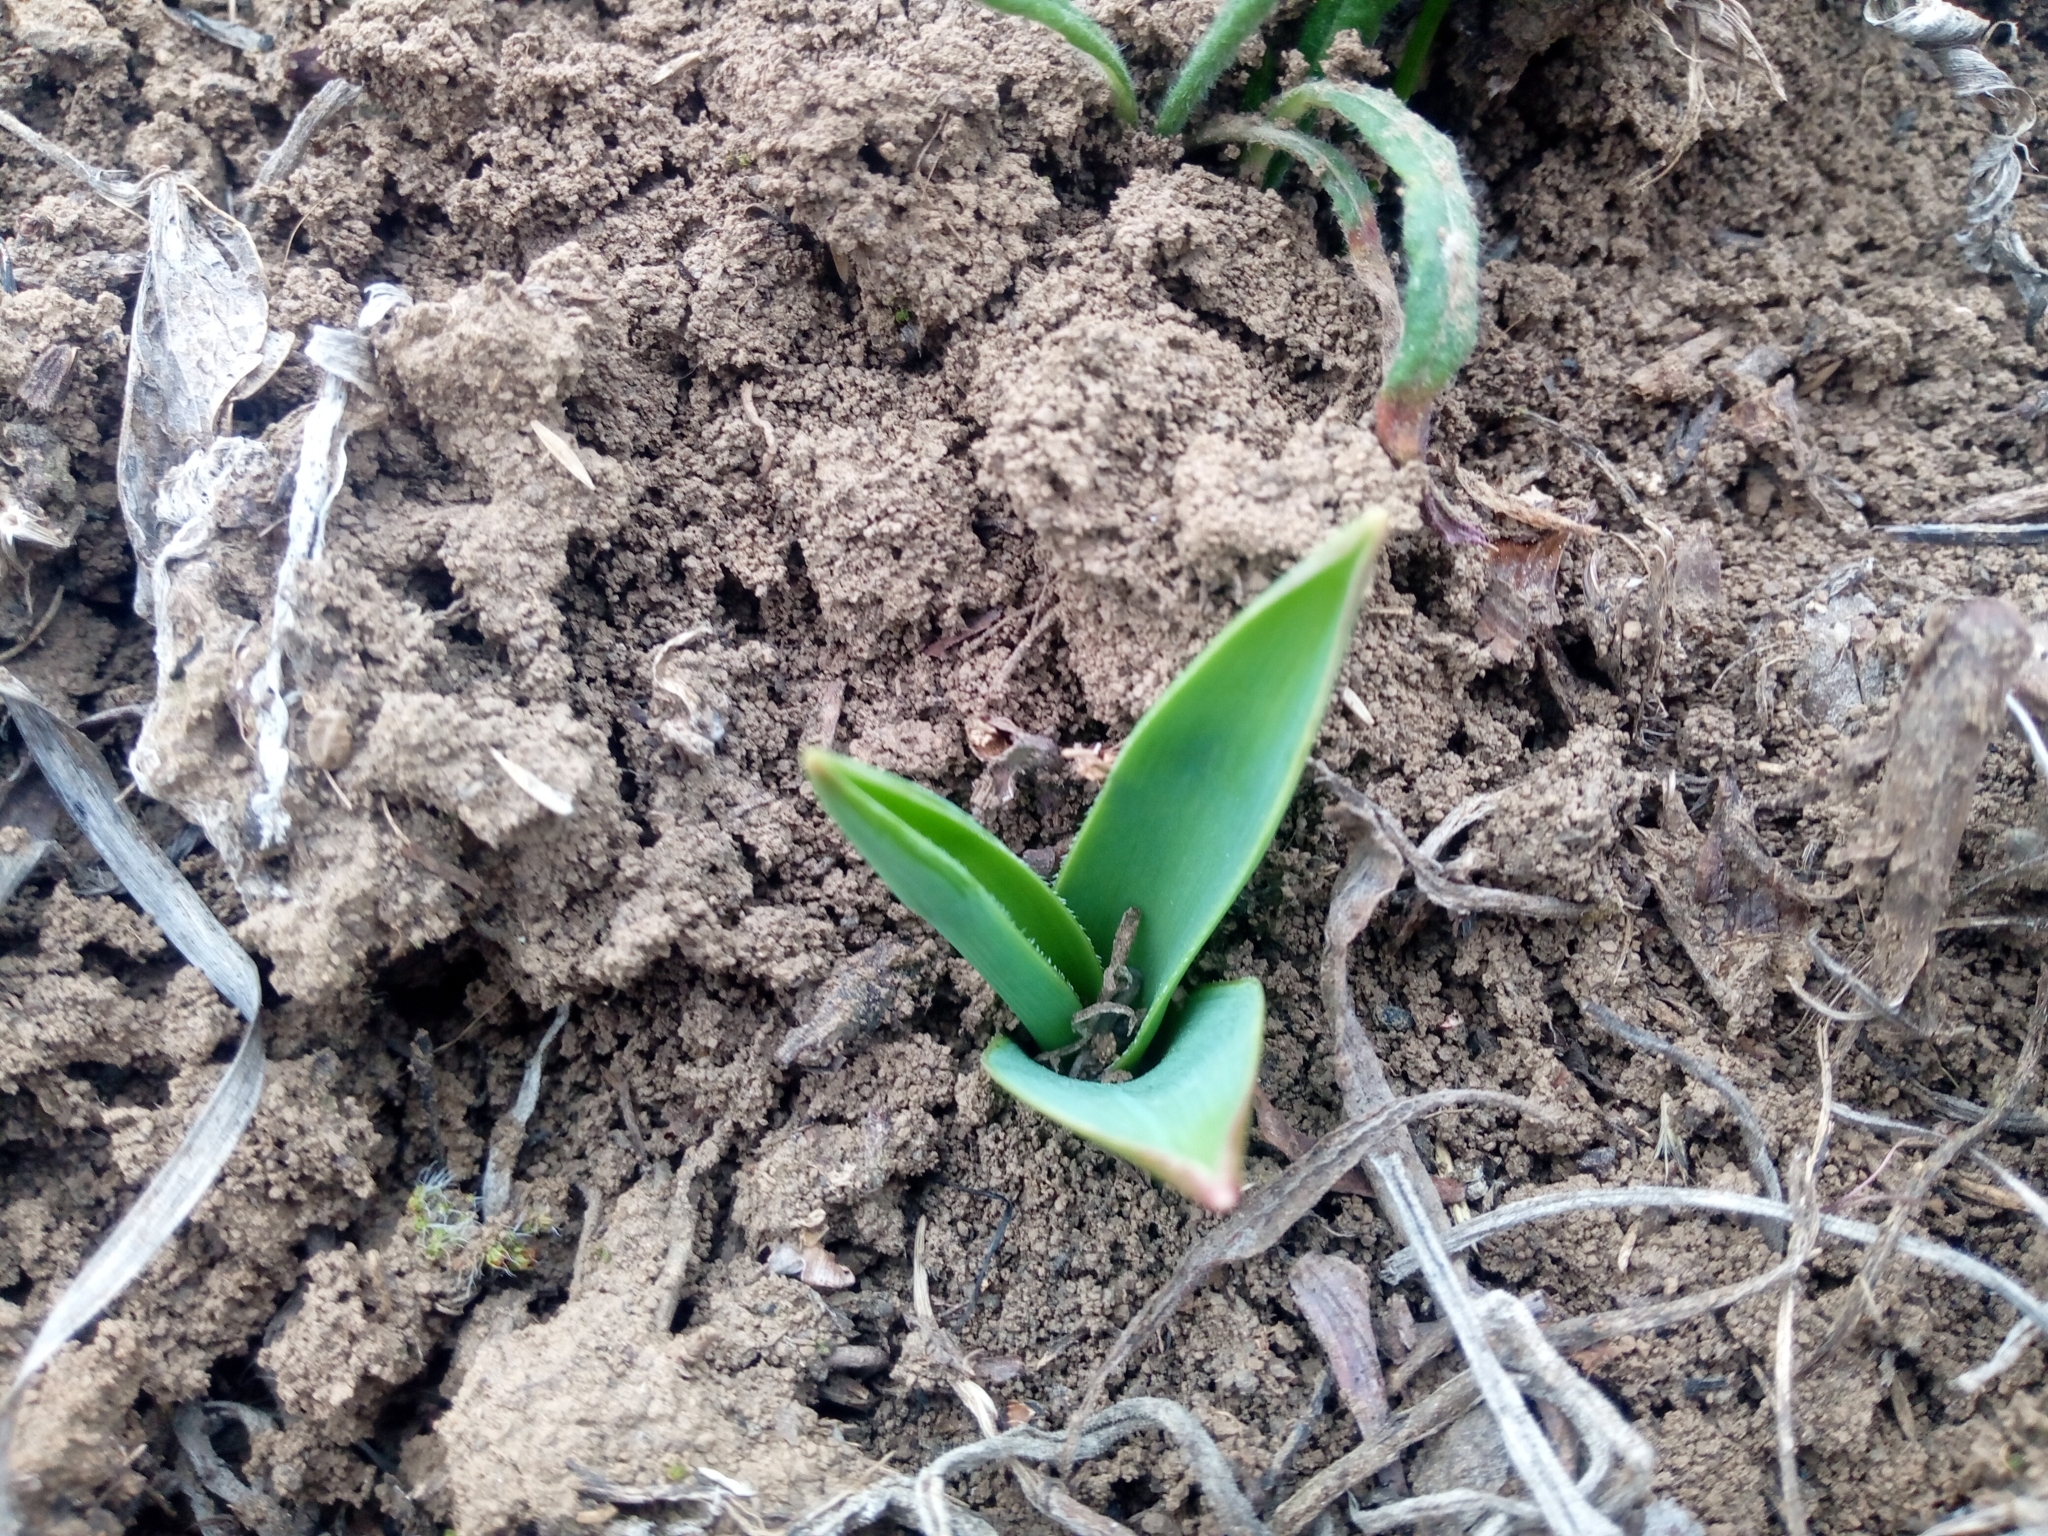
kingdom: Plantae
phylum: Tracheophyta
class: Liliopsida
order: Asparagales
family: Asparagaceae
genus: Bellevalia
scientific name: Bellevalia speciosa
